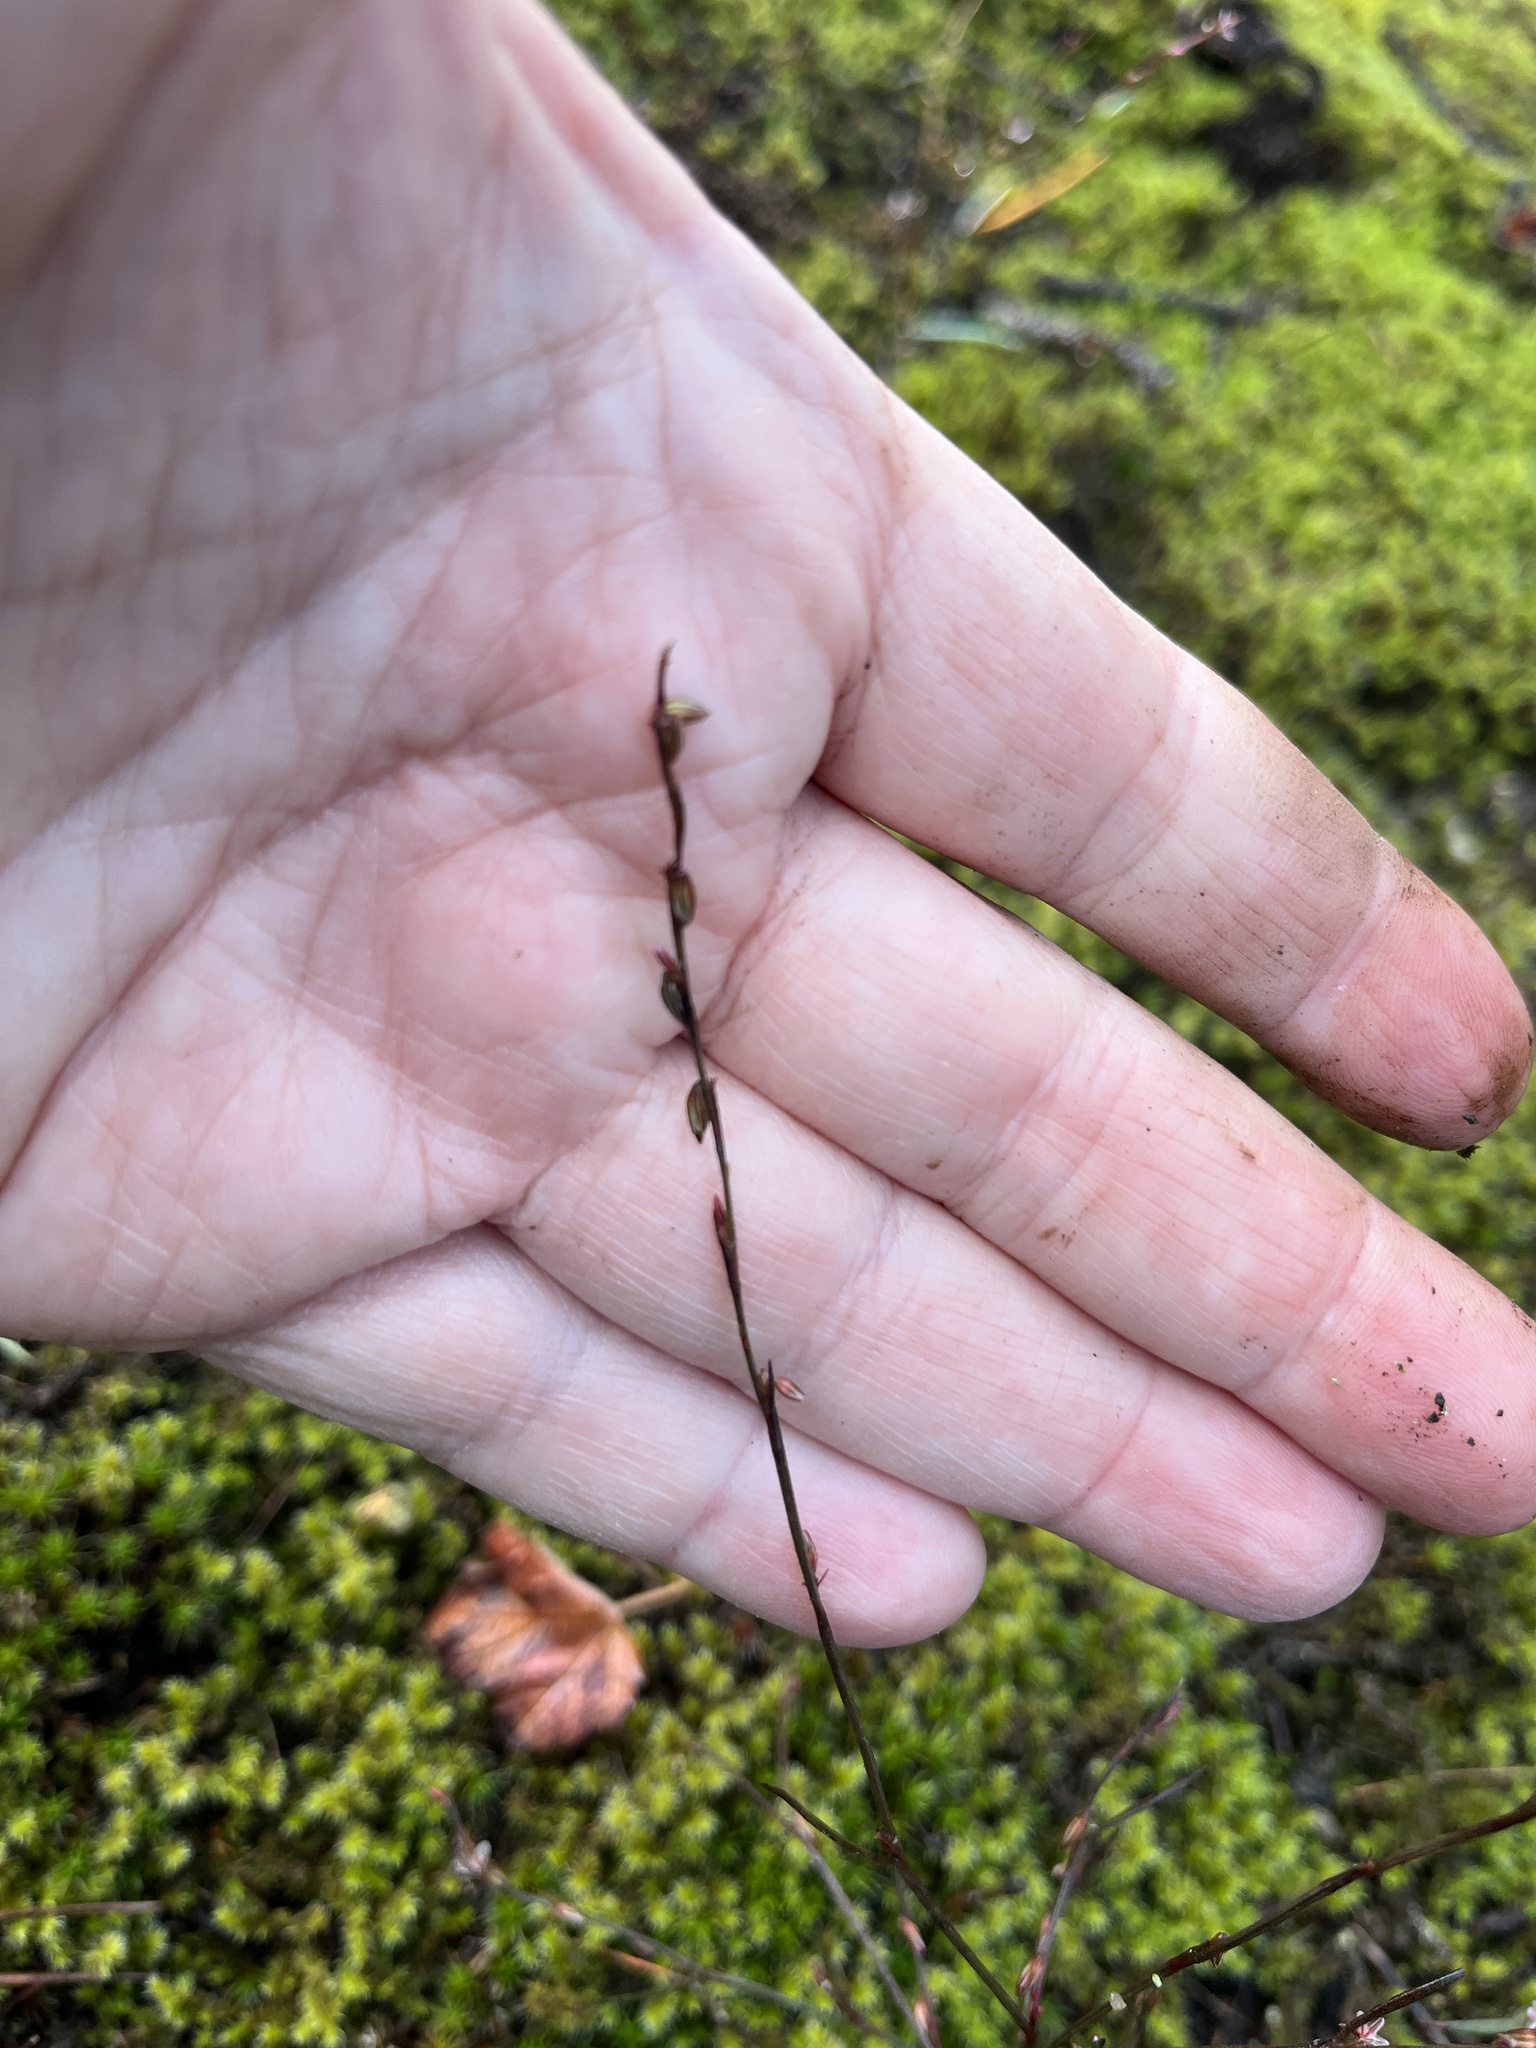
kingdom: Plantae
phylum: Tracheophyta
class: Magnoliopsida
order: Caryophyllales
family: Polygonaceae
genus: Polygonum
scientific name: Polygonum douglasii
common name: Douglas' knotweed
